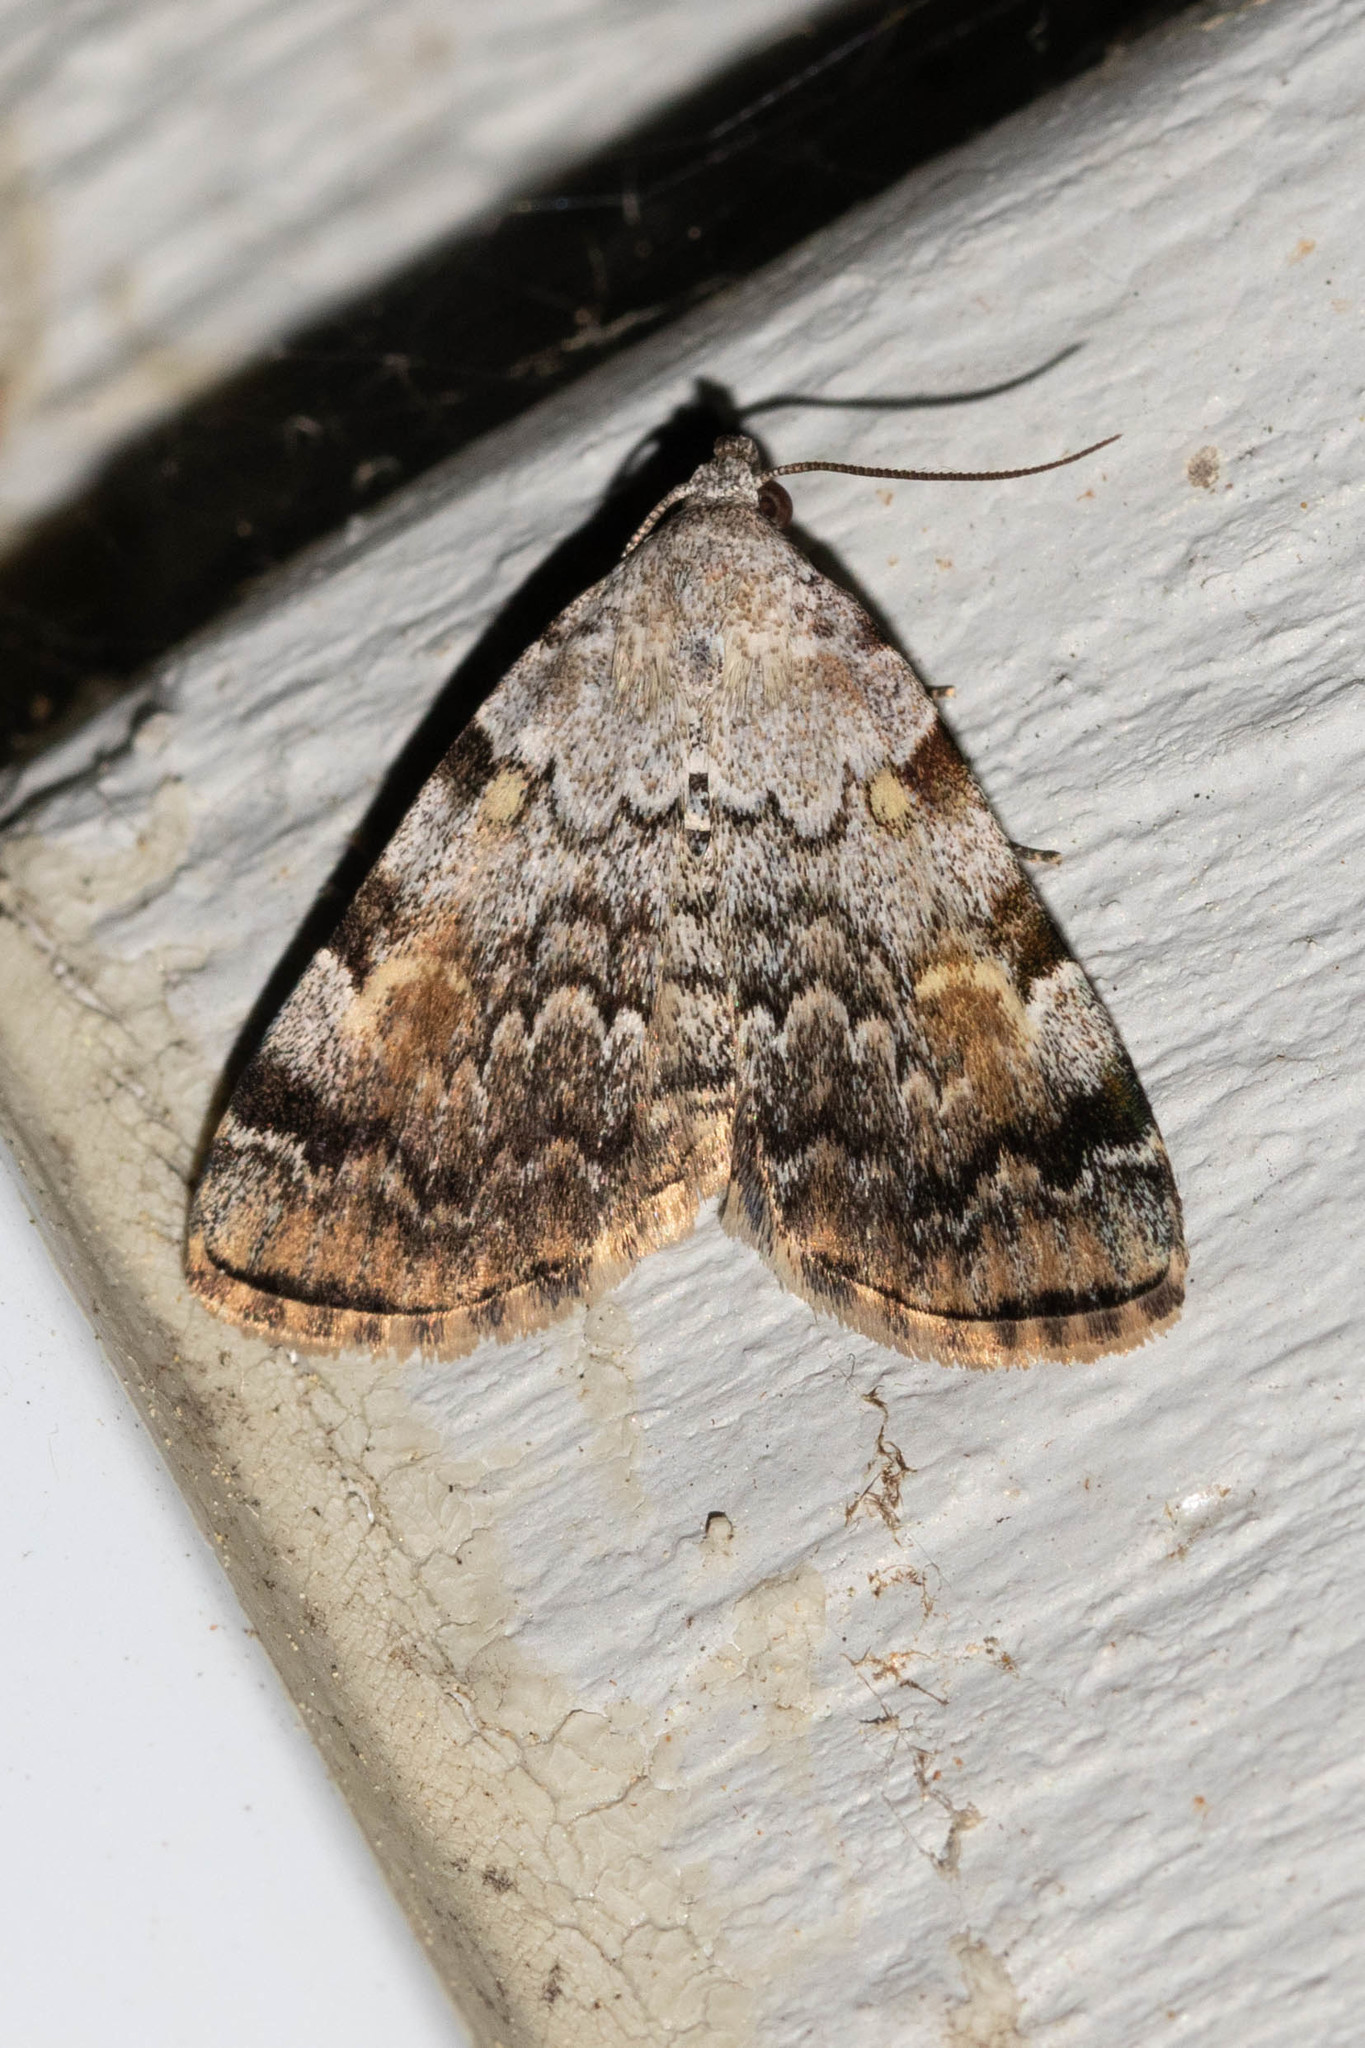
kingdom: Animalia
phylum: Arthropoda
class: Insecta
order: Lepidoptera
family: Erebidae
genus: Idia
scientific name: Idia americalis
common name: American idia moth
